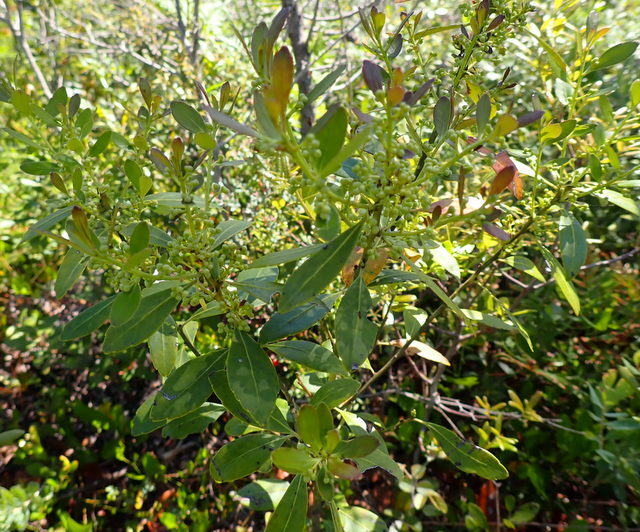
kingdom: Plantae
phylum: Tracheophyta
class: Magnoliopsida
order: Aquifoliales
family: Aquifoliaceae
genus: Ilex
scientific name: Ilex glabra
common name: Bitter gallberry
